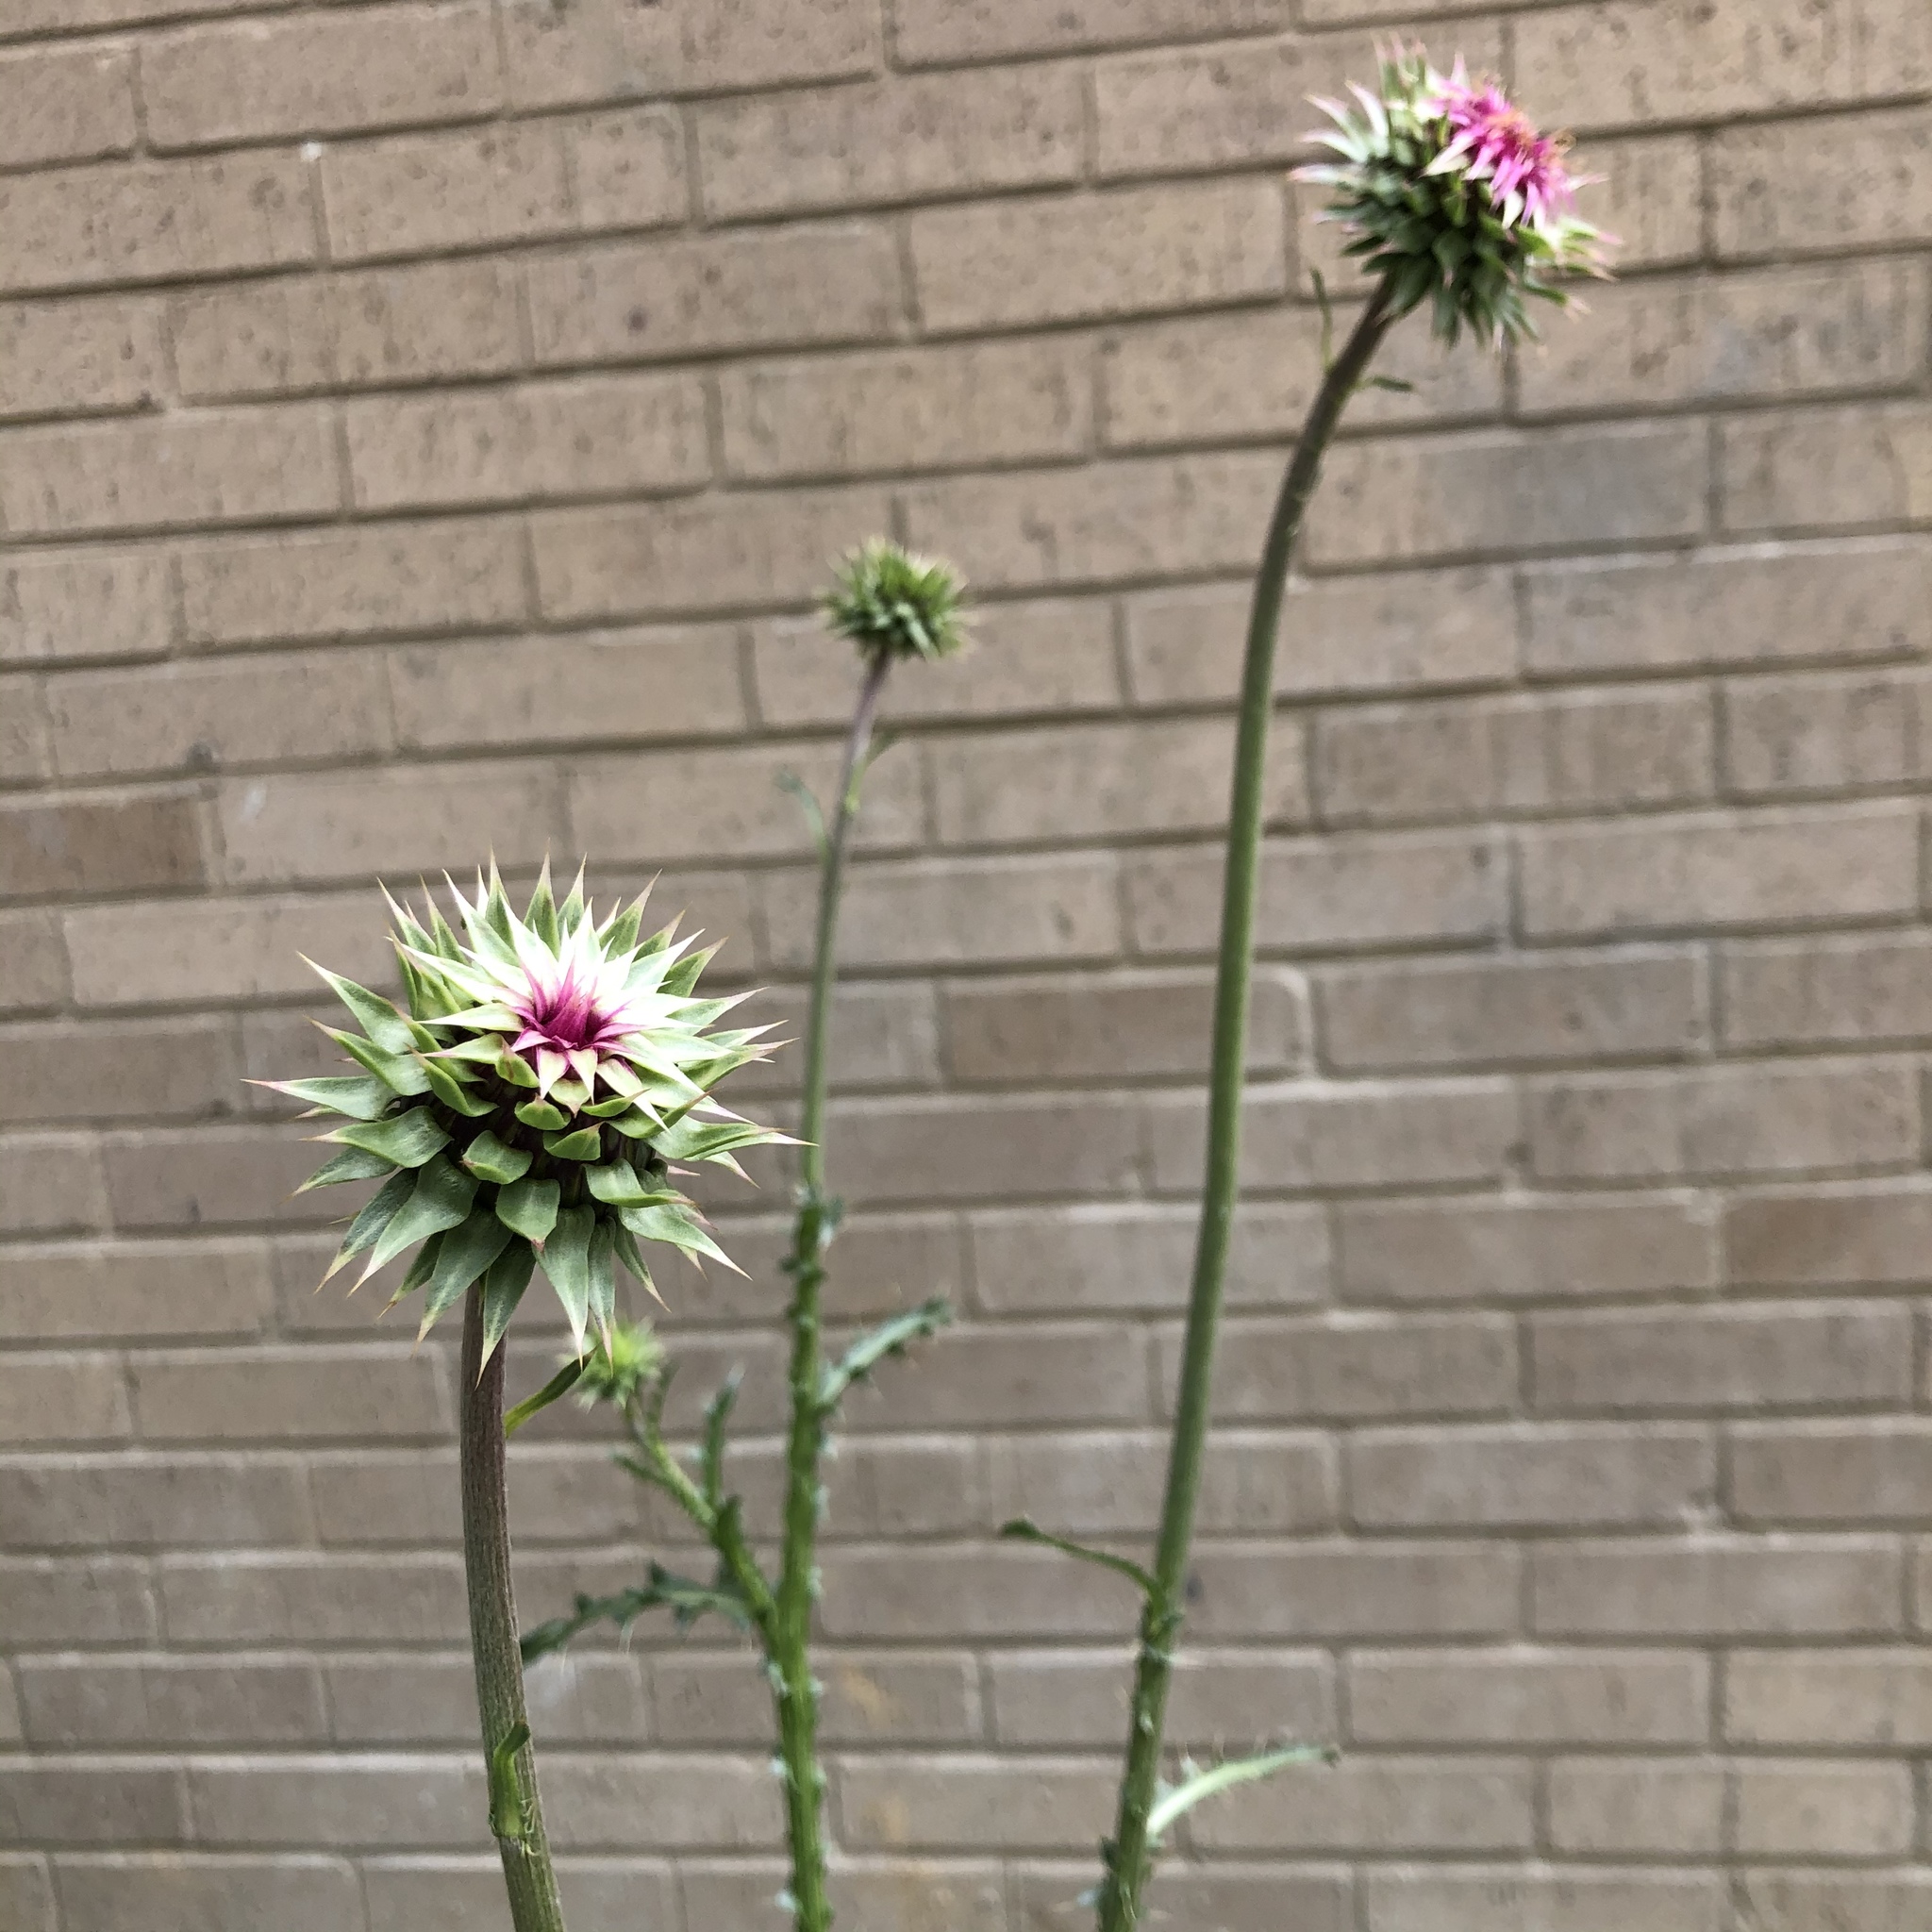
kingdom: Plantae
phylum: Tracheophyta
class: Magnoliopsida
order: Asterales
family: Asteraceae
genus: Carduus
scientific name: Carduus nutans
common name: Musk thistle
